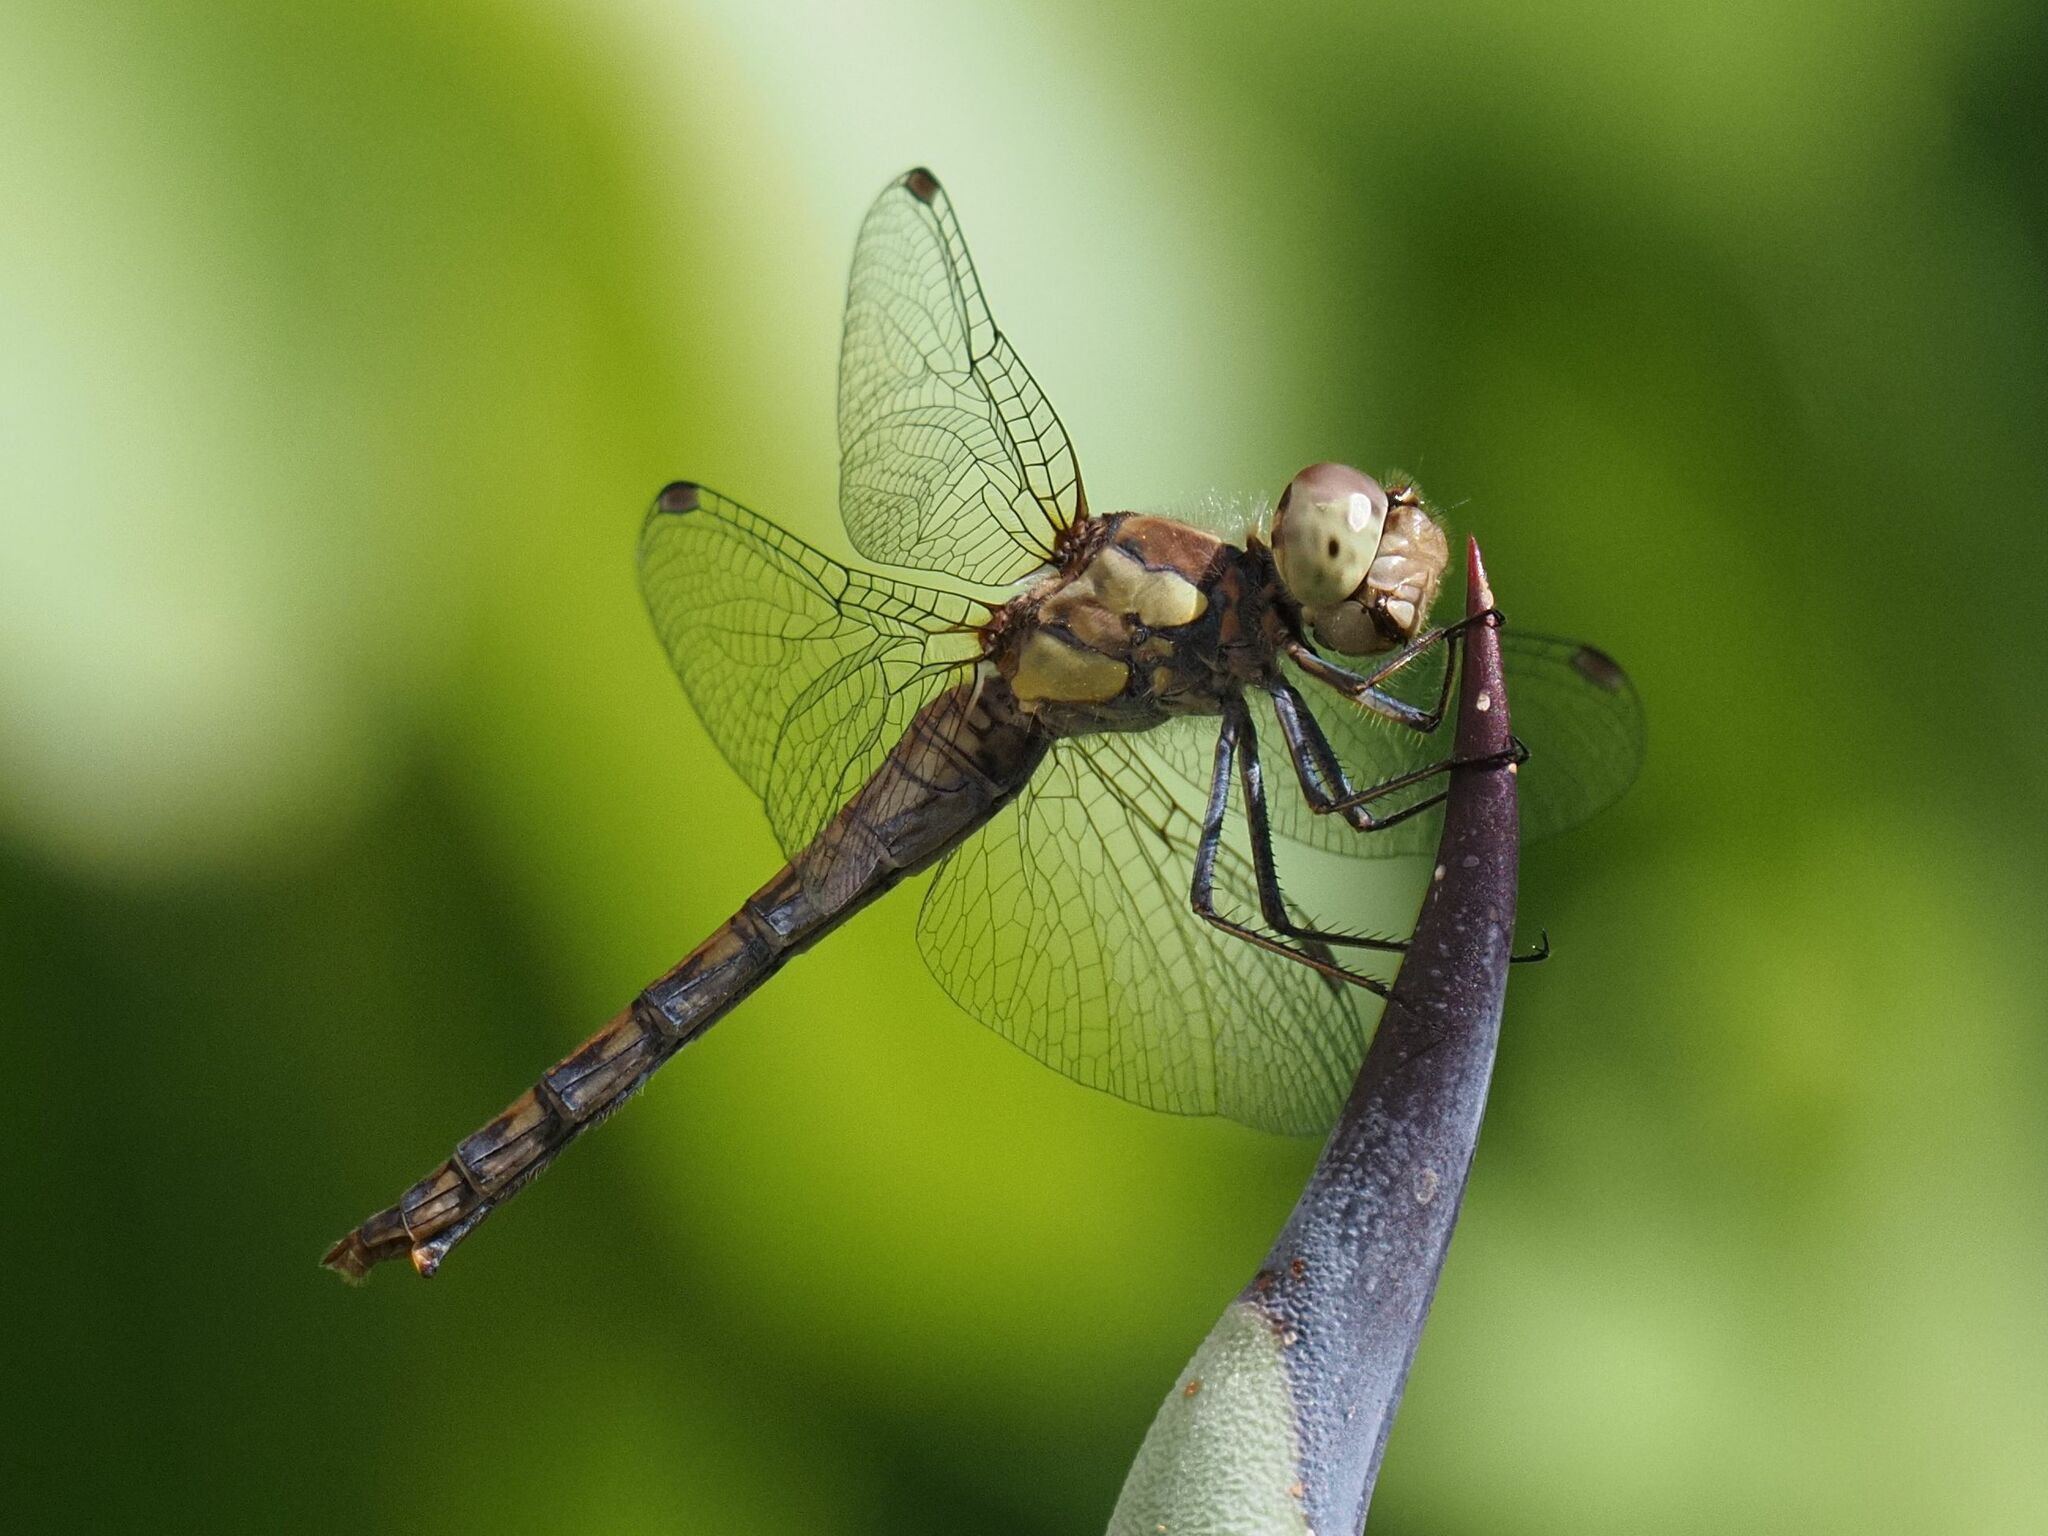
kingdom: Animalia
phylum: Arthropoda
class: Insecta
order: Odonata
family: Libellulidae
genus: Sympetrum
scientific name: Sympetrum striolatum
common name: Common darter
